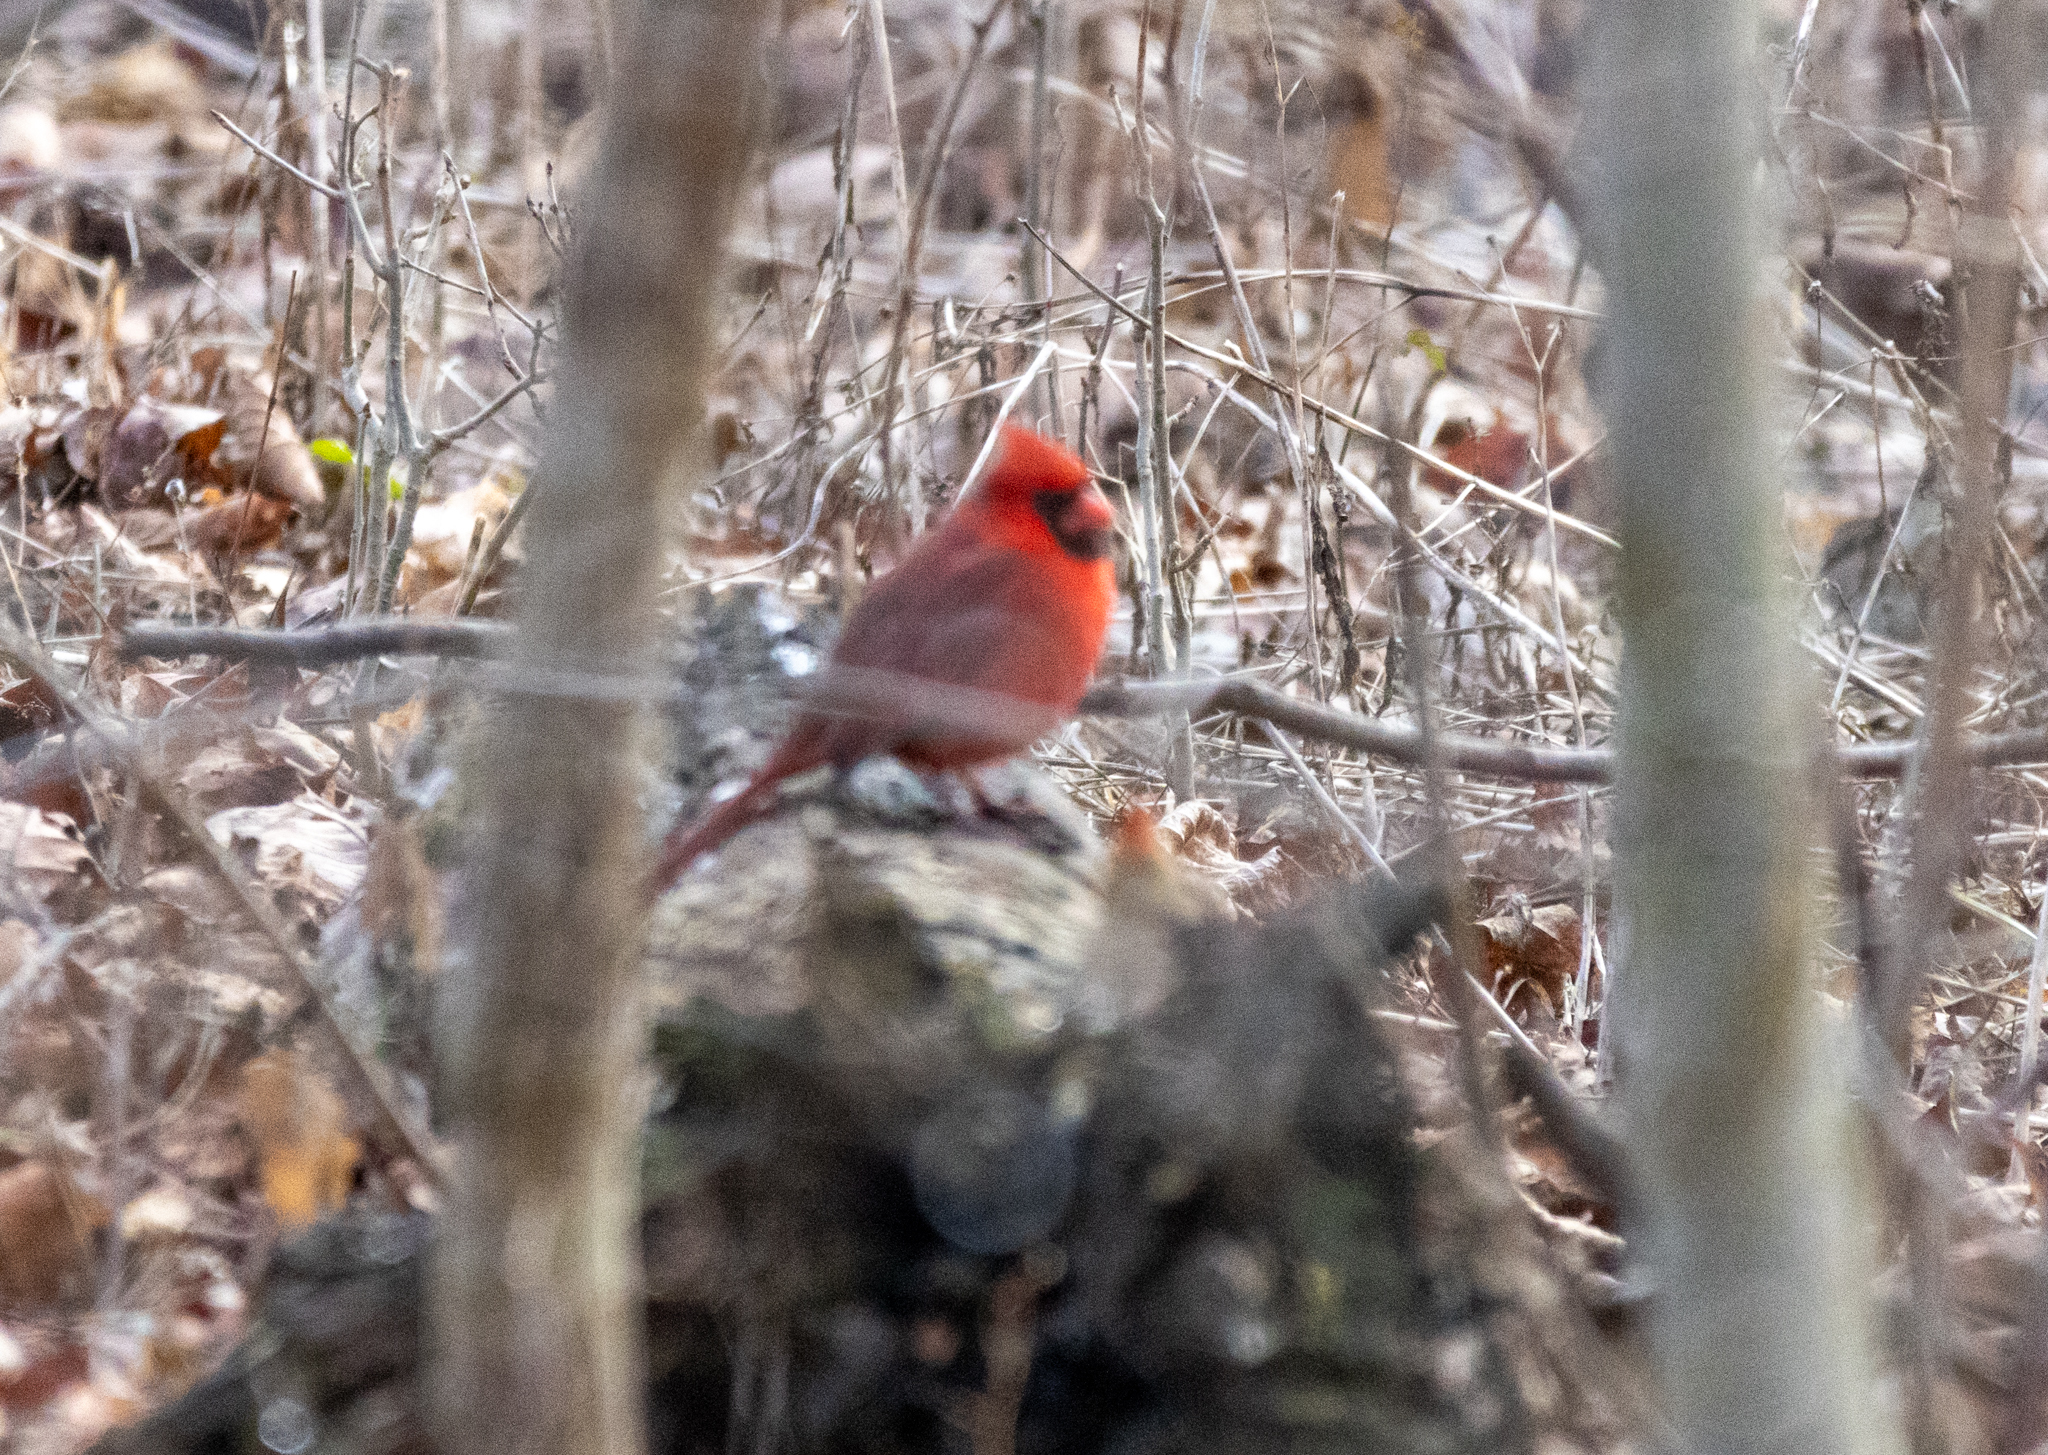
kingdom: Animalia
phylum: Chordata
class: Aves
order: Passeriformes
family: Cardinalidae
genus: Cardinalis
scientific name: Cardinalis cardinalis
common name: Northern cardinal
